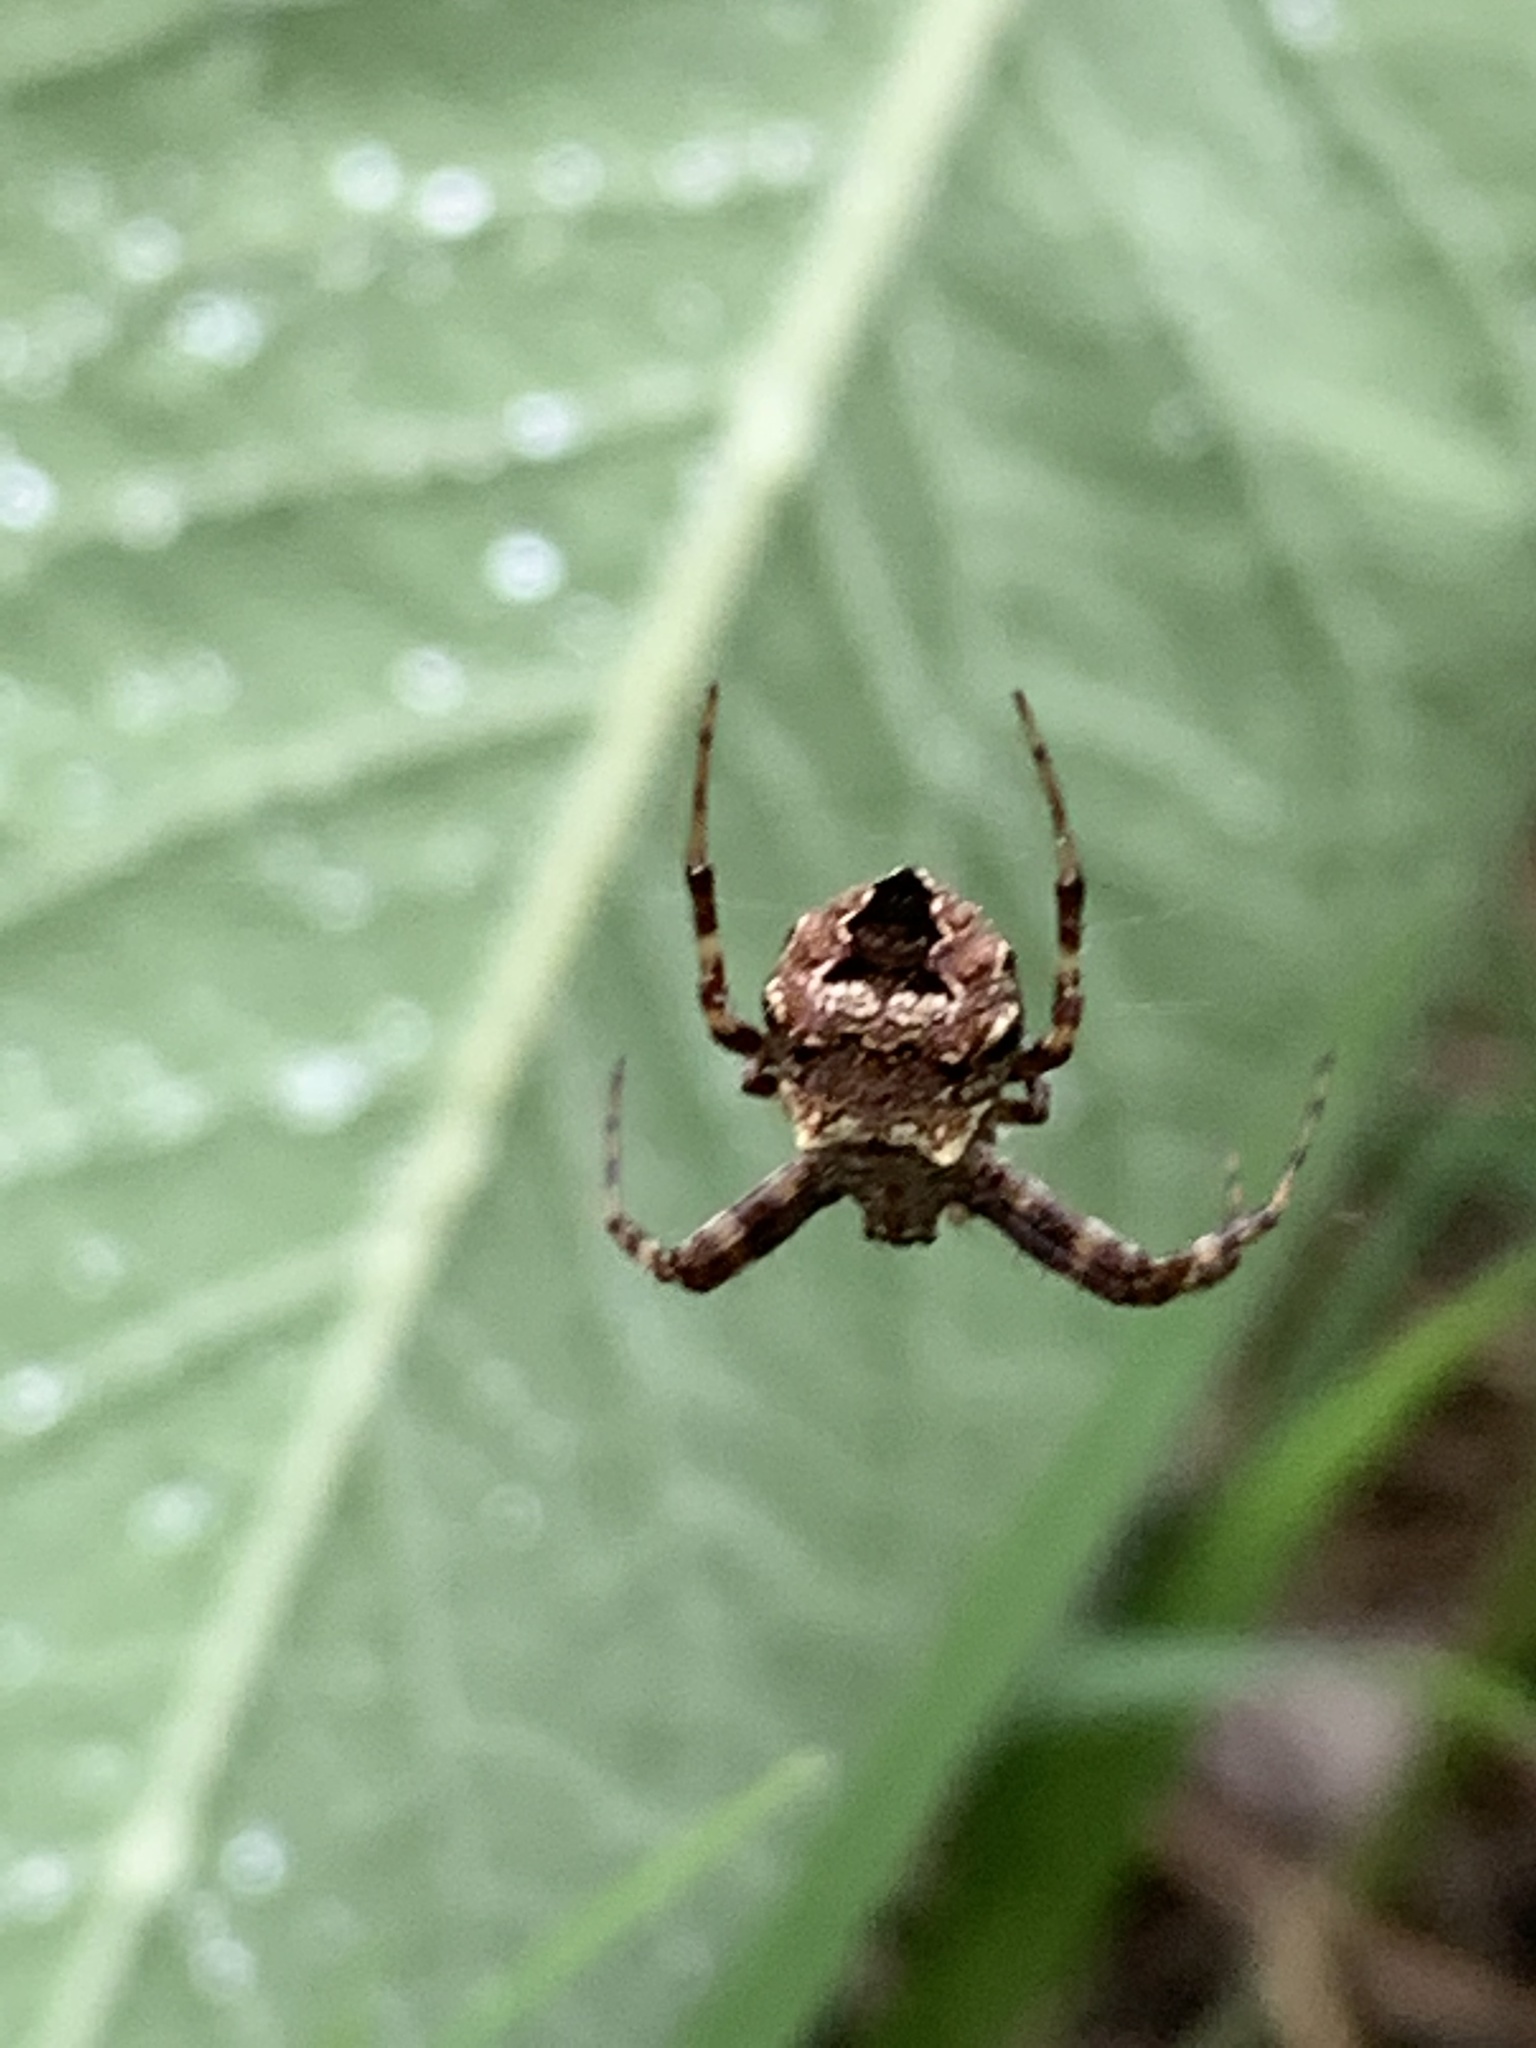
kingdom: Animalia
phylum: Arthropoda
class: Arachnida
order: Araneae
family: Araneidae
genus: Gea
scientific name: Gea heptagon
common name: Orb weavers
